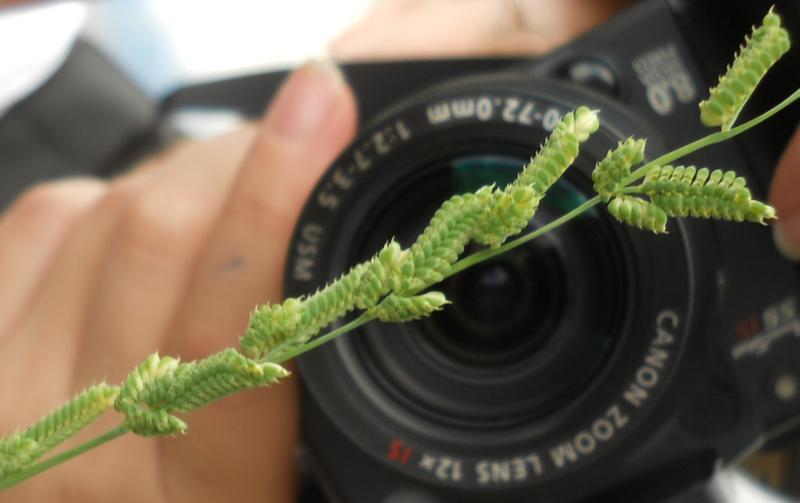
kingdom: Plantae
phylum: Tracheophyta
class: Liliopsida
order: Poales
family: Poaceae
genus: Beckmannia
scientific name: Beckmannia eruciformis
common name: European slough-grass
